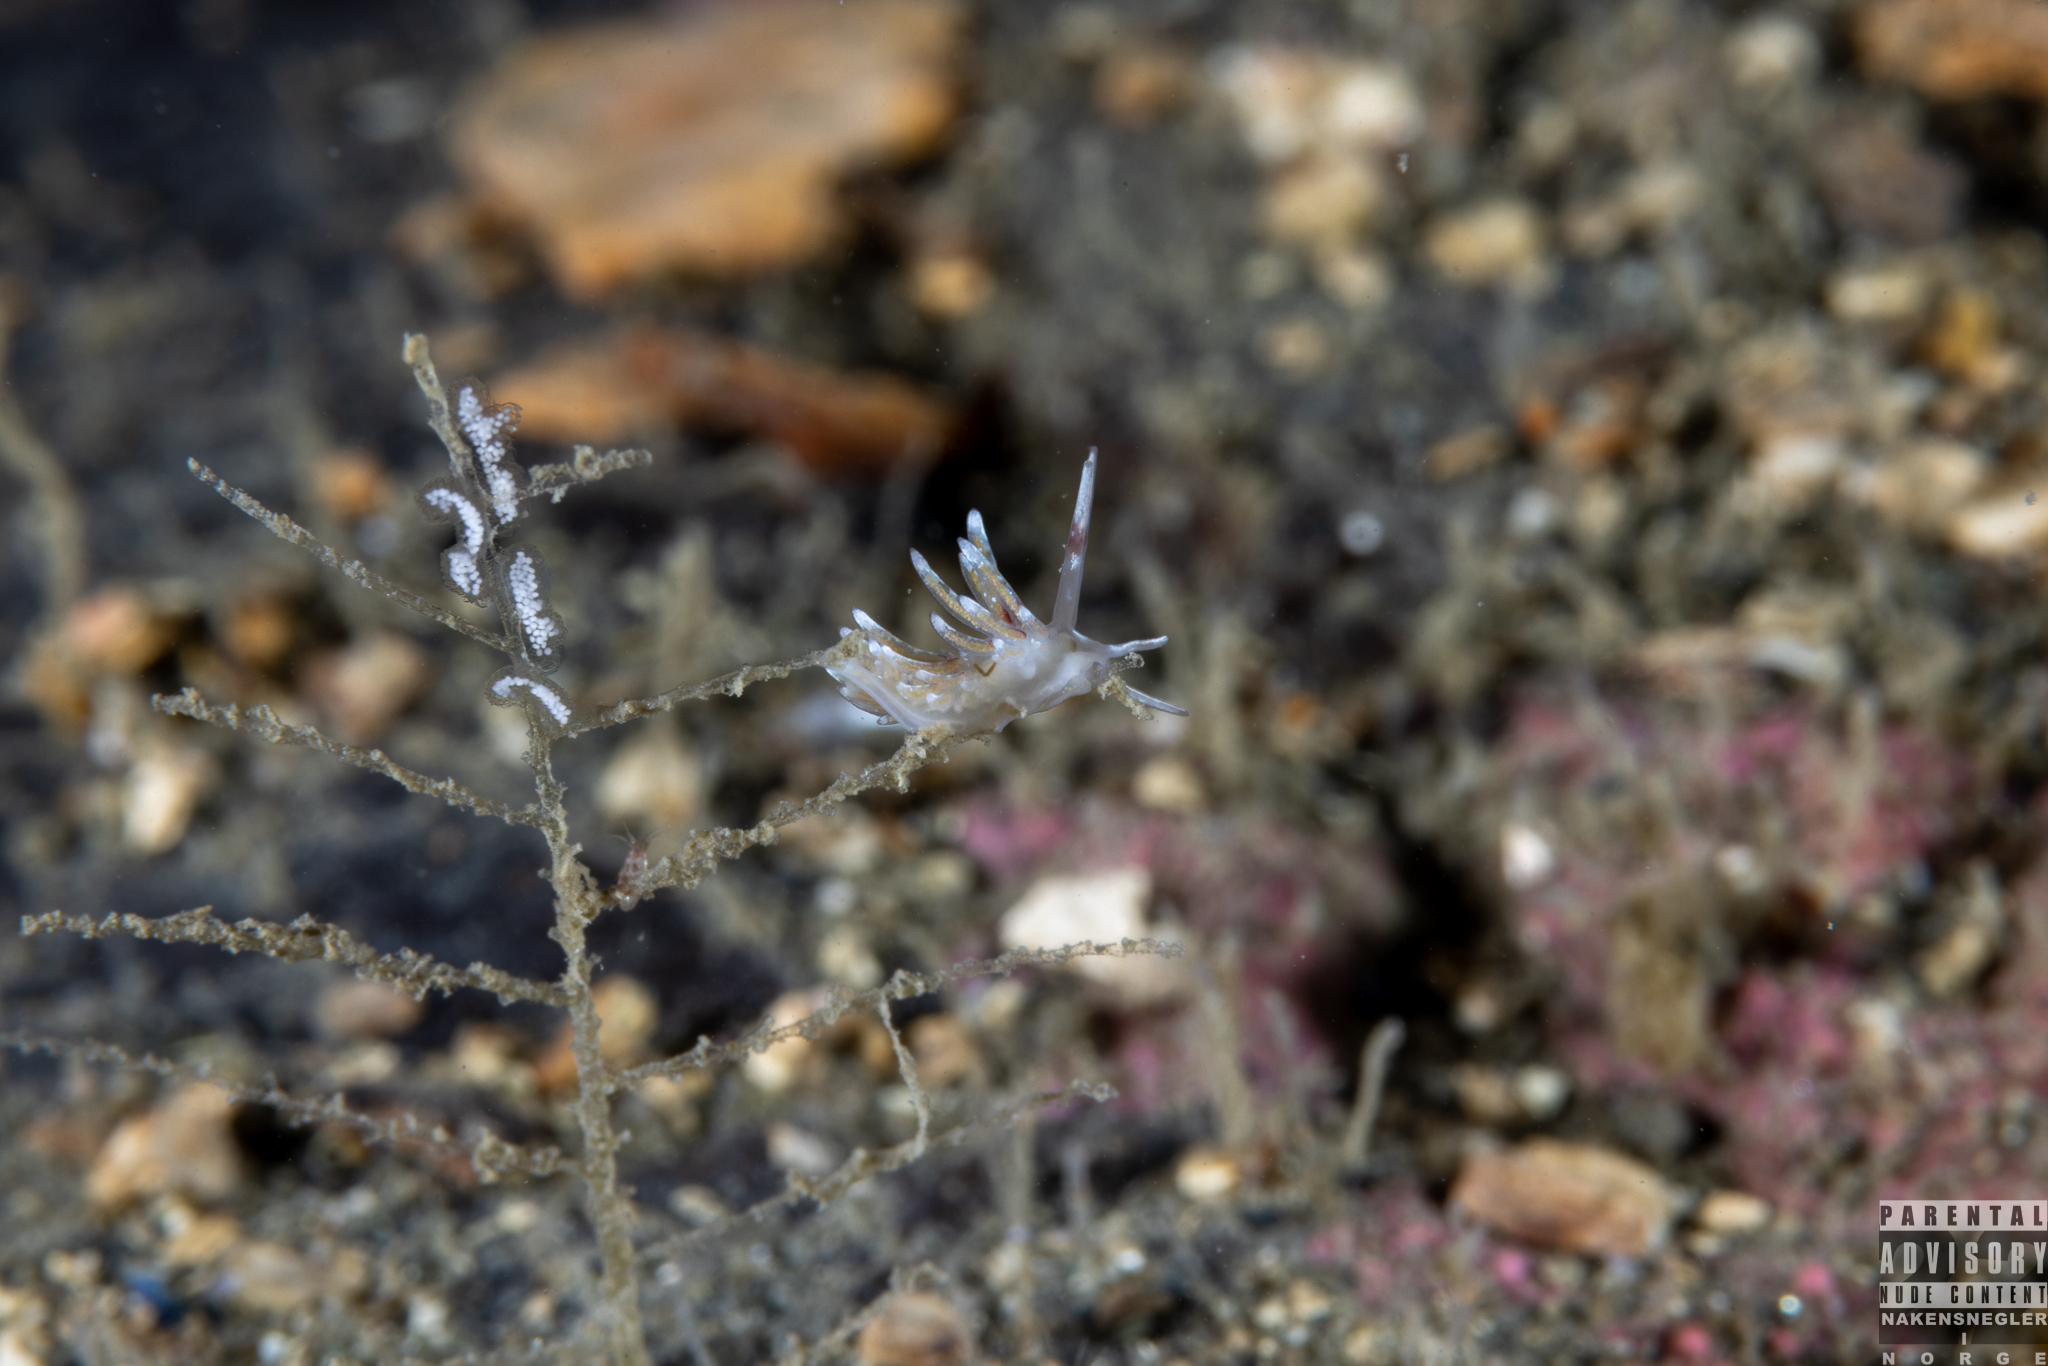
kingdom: Animalia
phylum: Mollusca
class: Gastropoda
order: Nudibranchia
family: Trinchesiidae
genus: Rubramoena
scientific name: Rubramoena rubescens
